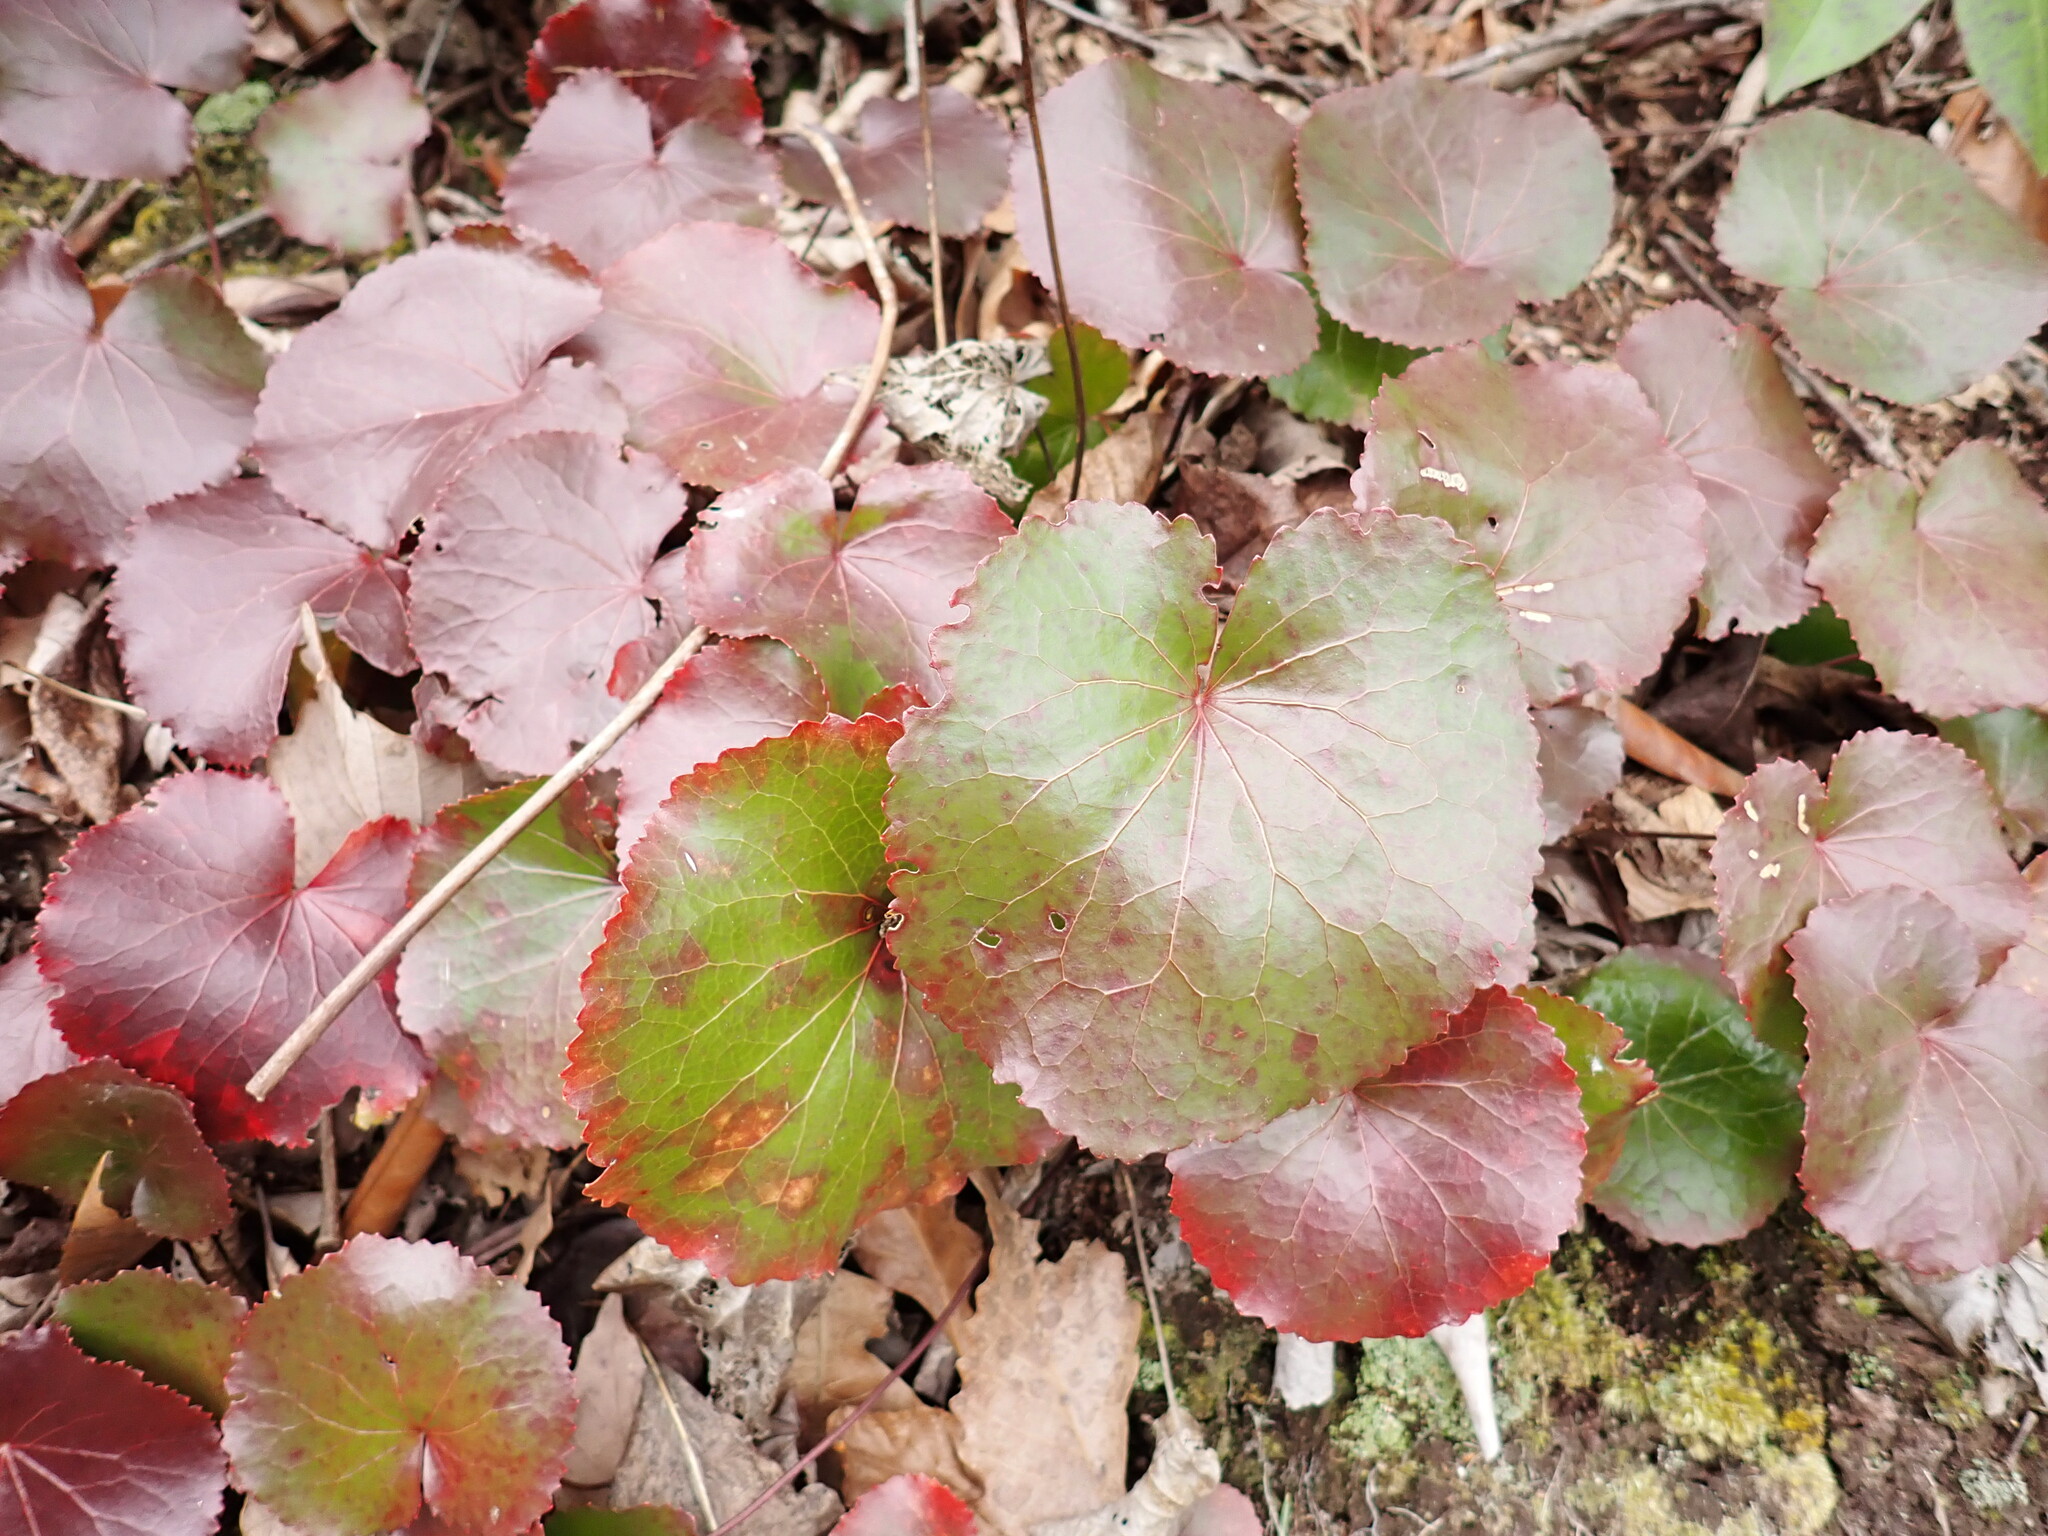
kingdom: Plantae
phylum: Tracheophyta
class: Magnoliopsida
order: Ericales
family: Diapensiaceae
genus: Galax
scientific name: Galax urceolata
